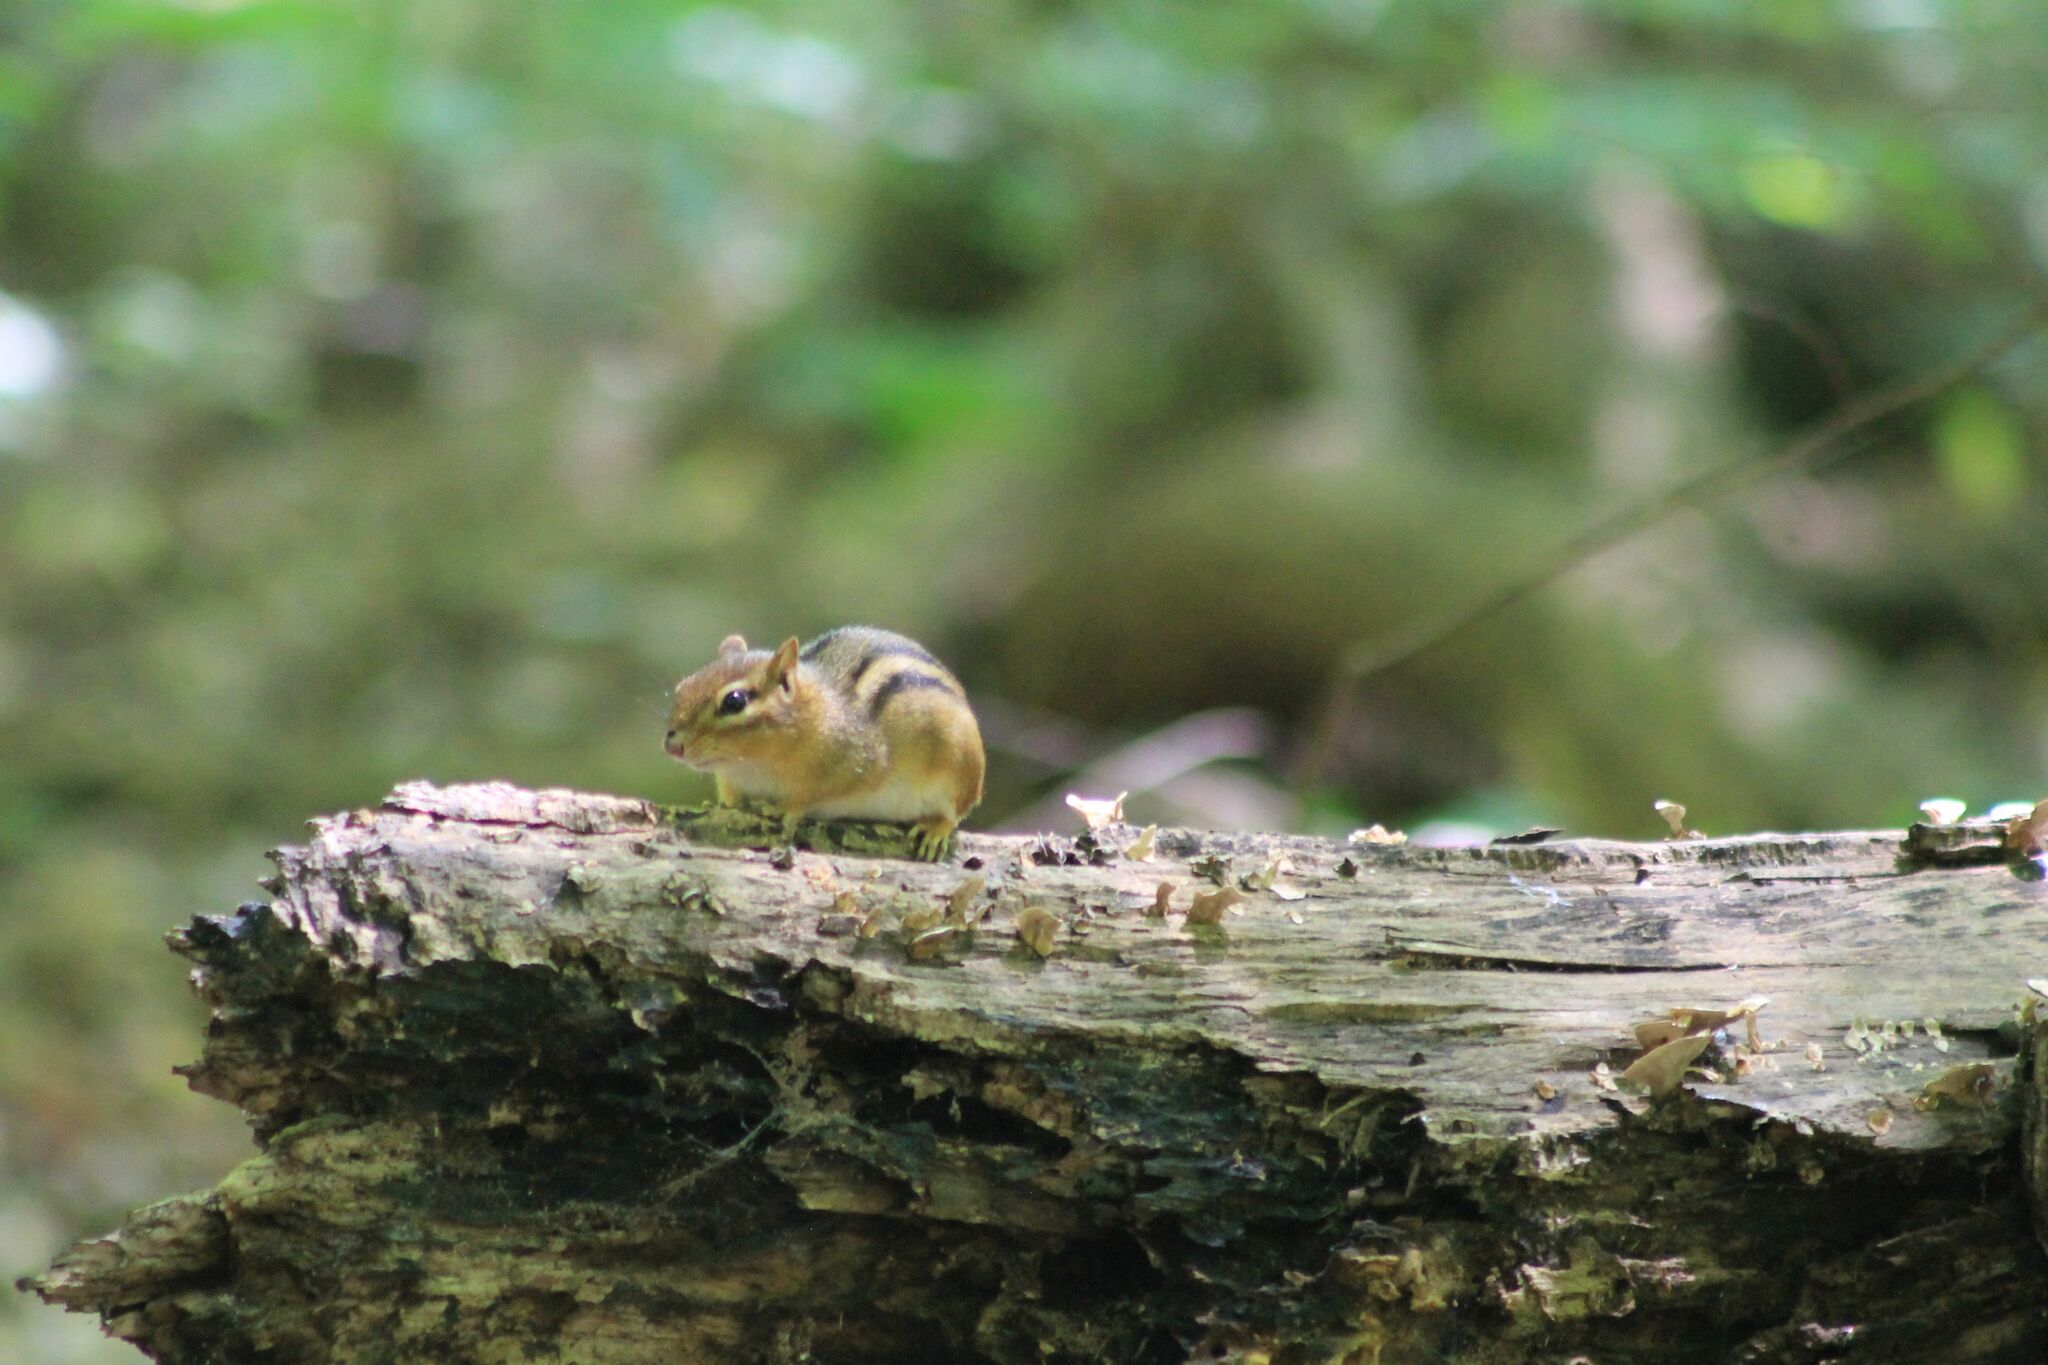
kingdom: Animalia
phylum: Chordata
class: Mammalia
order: Rodentia
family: Sciuridae
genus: Tamias
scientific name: Tamias striatus
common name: Eastern chipmunk
